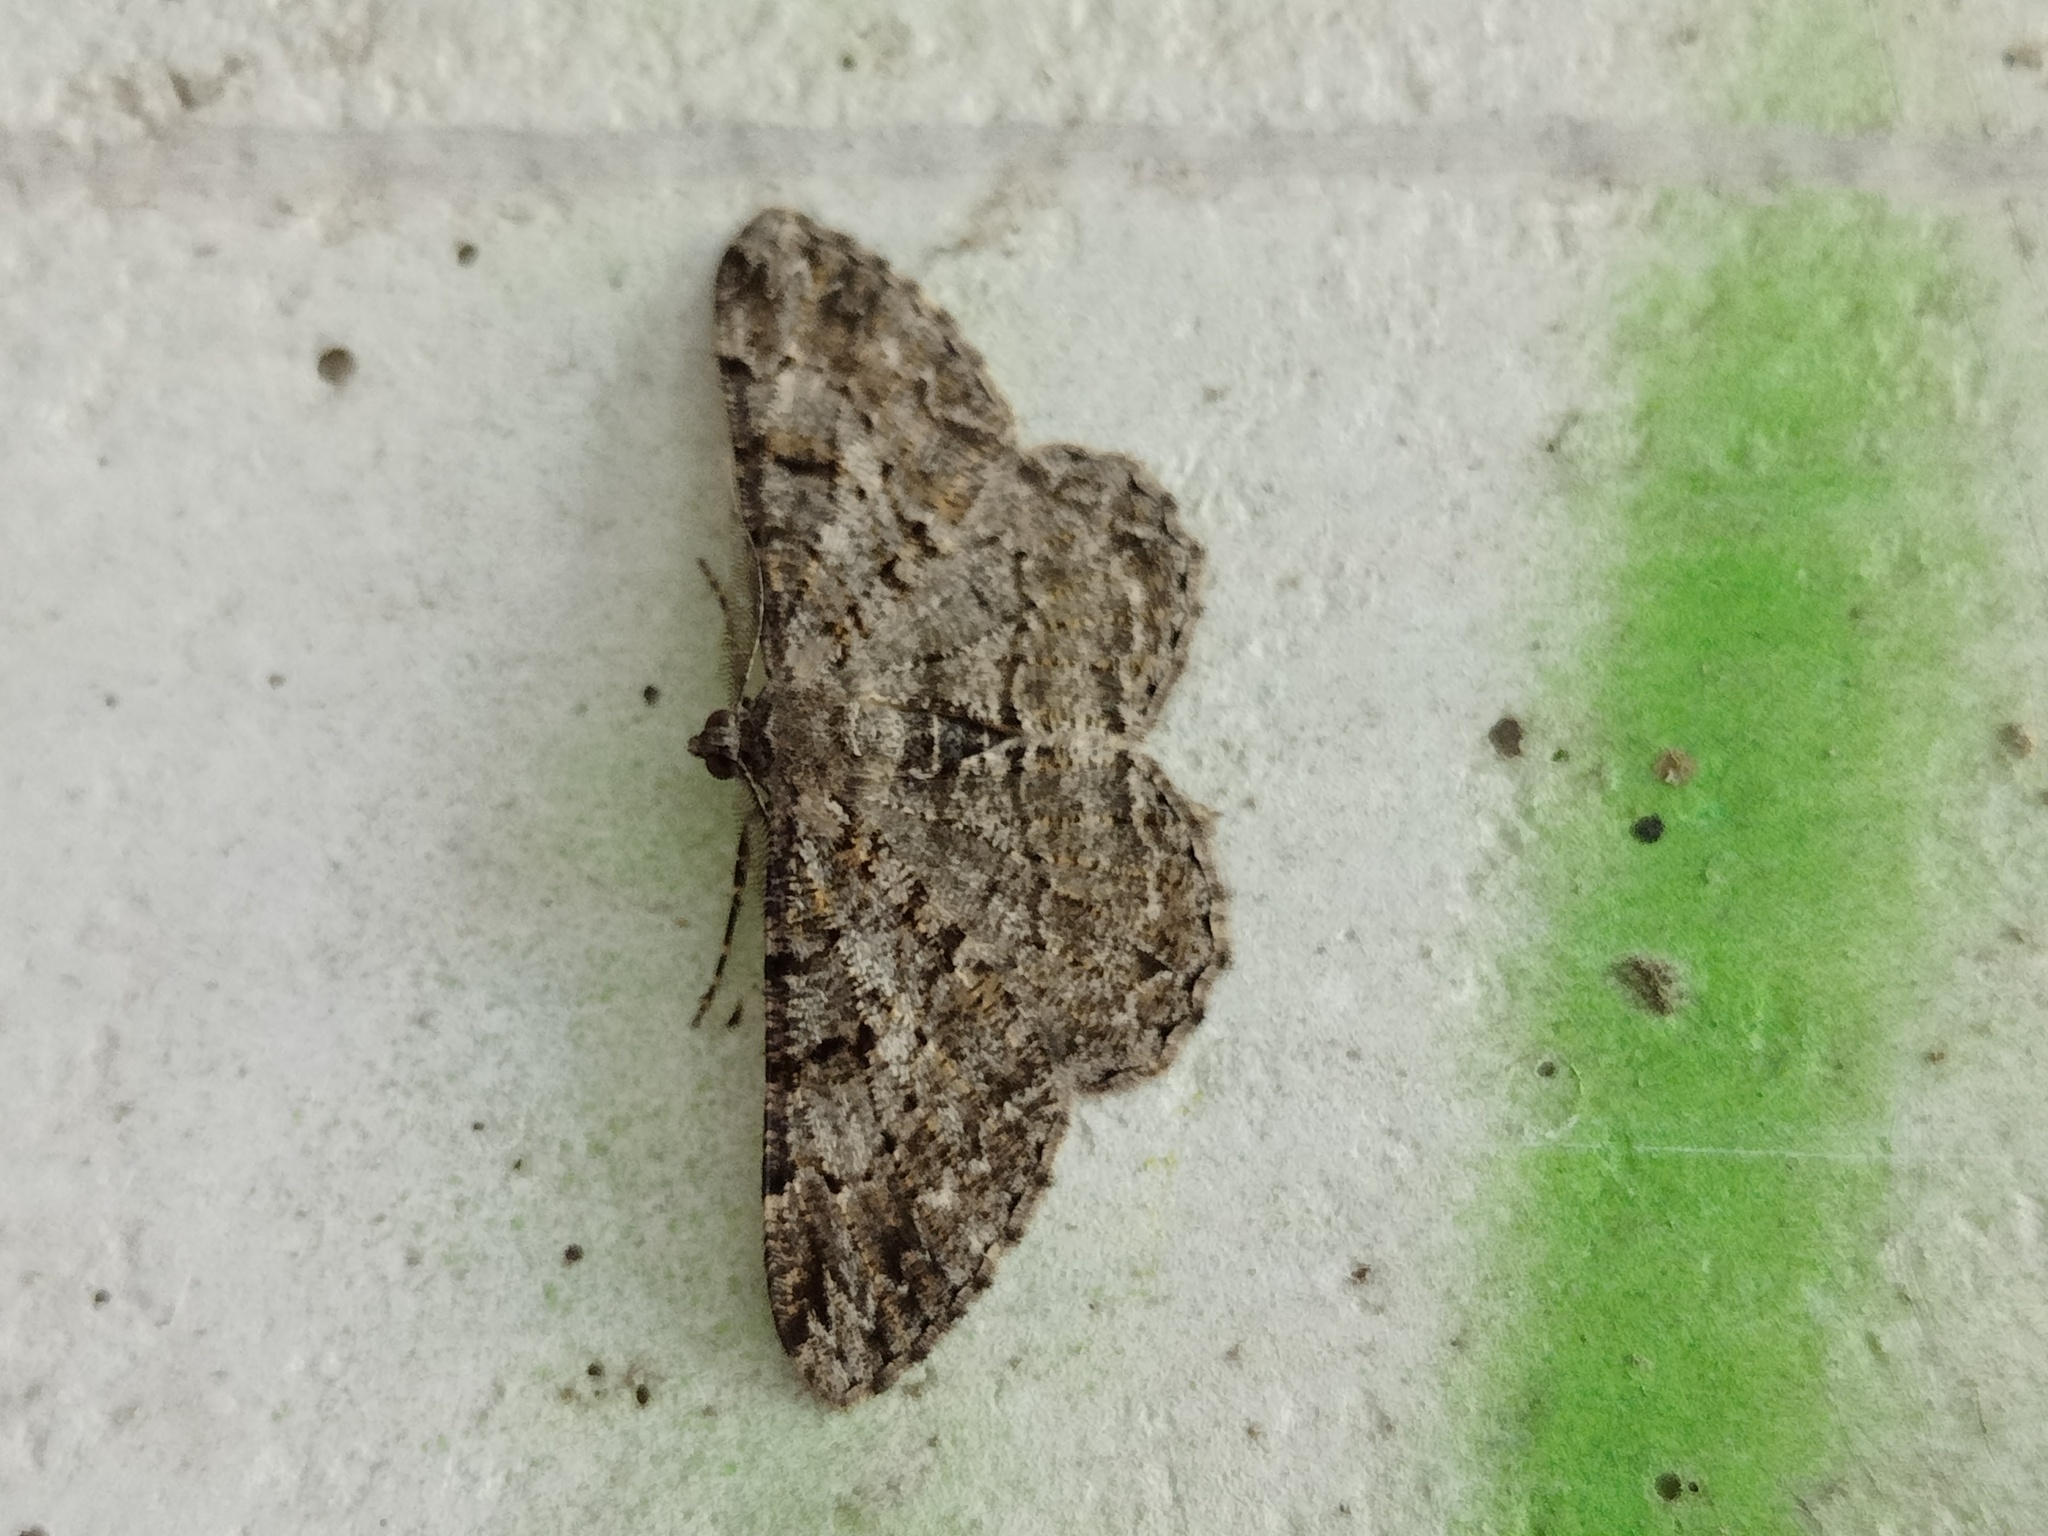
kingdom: Animalia
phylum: Arthropoda
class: Insecta
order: Lepidoptera
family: Geometridae
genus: Peribatodes
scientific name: Peribatodes rhomboidaria
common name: Willow beauty
